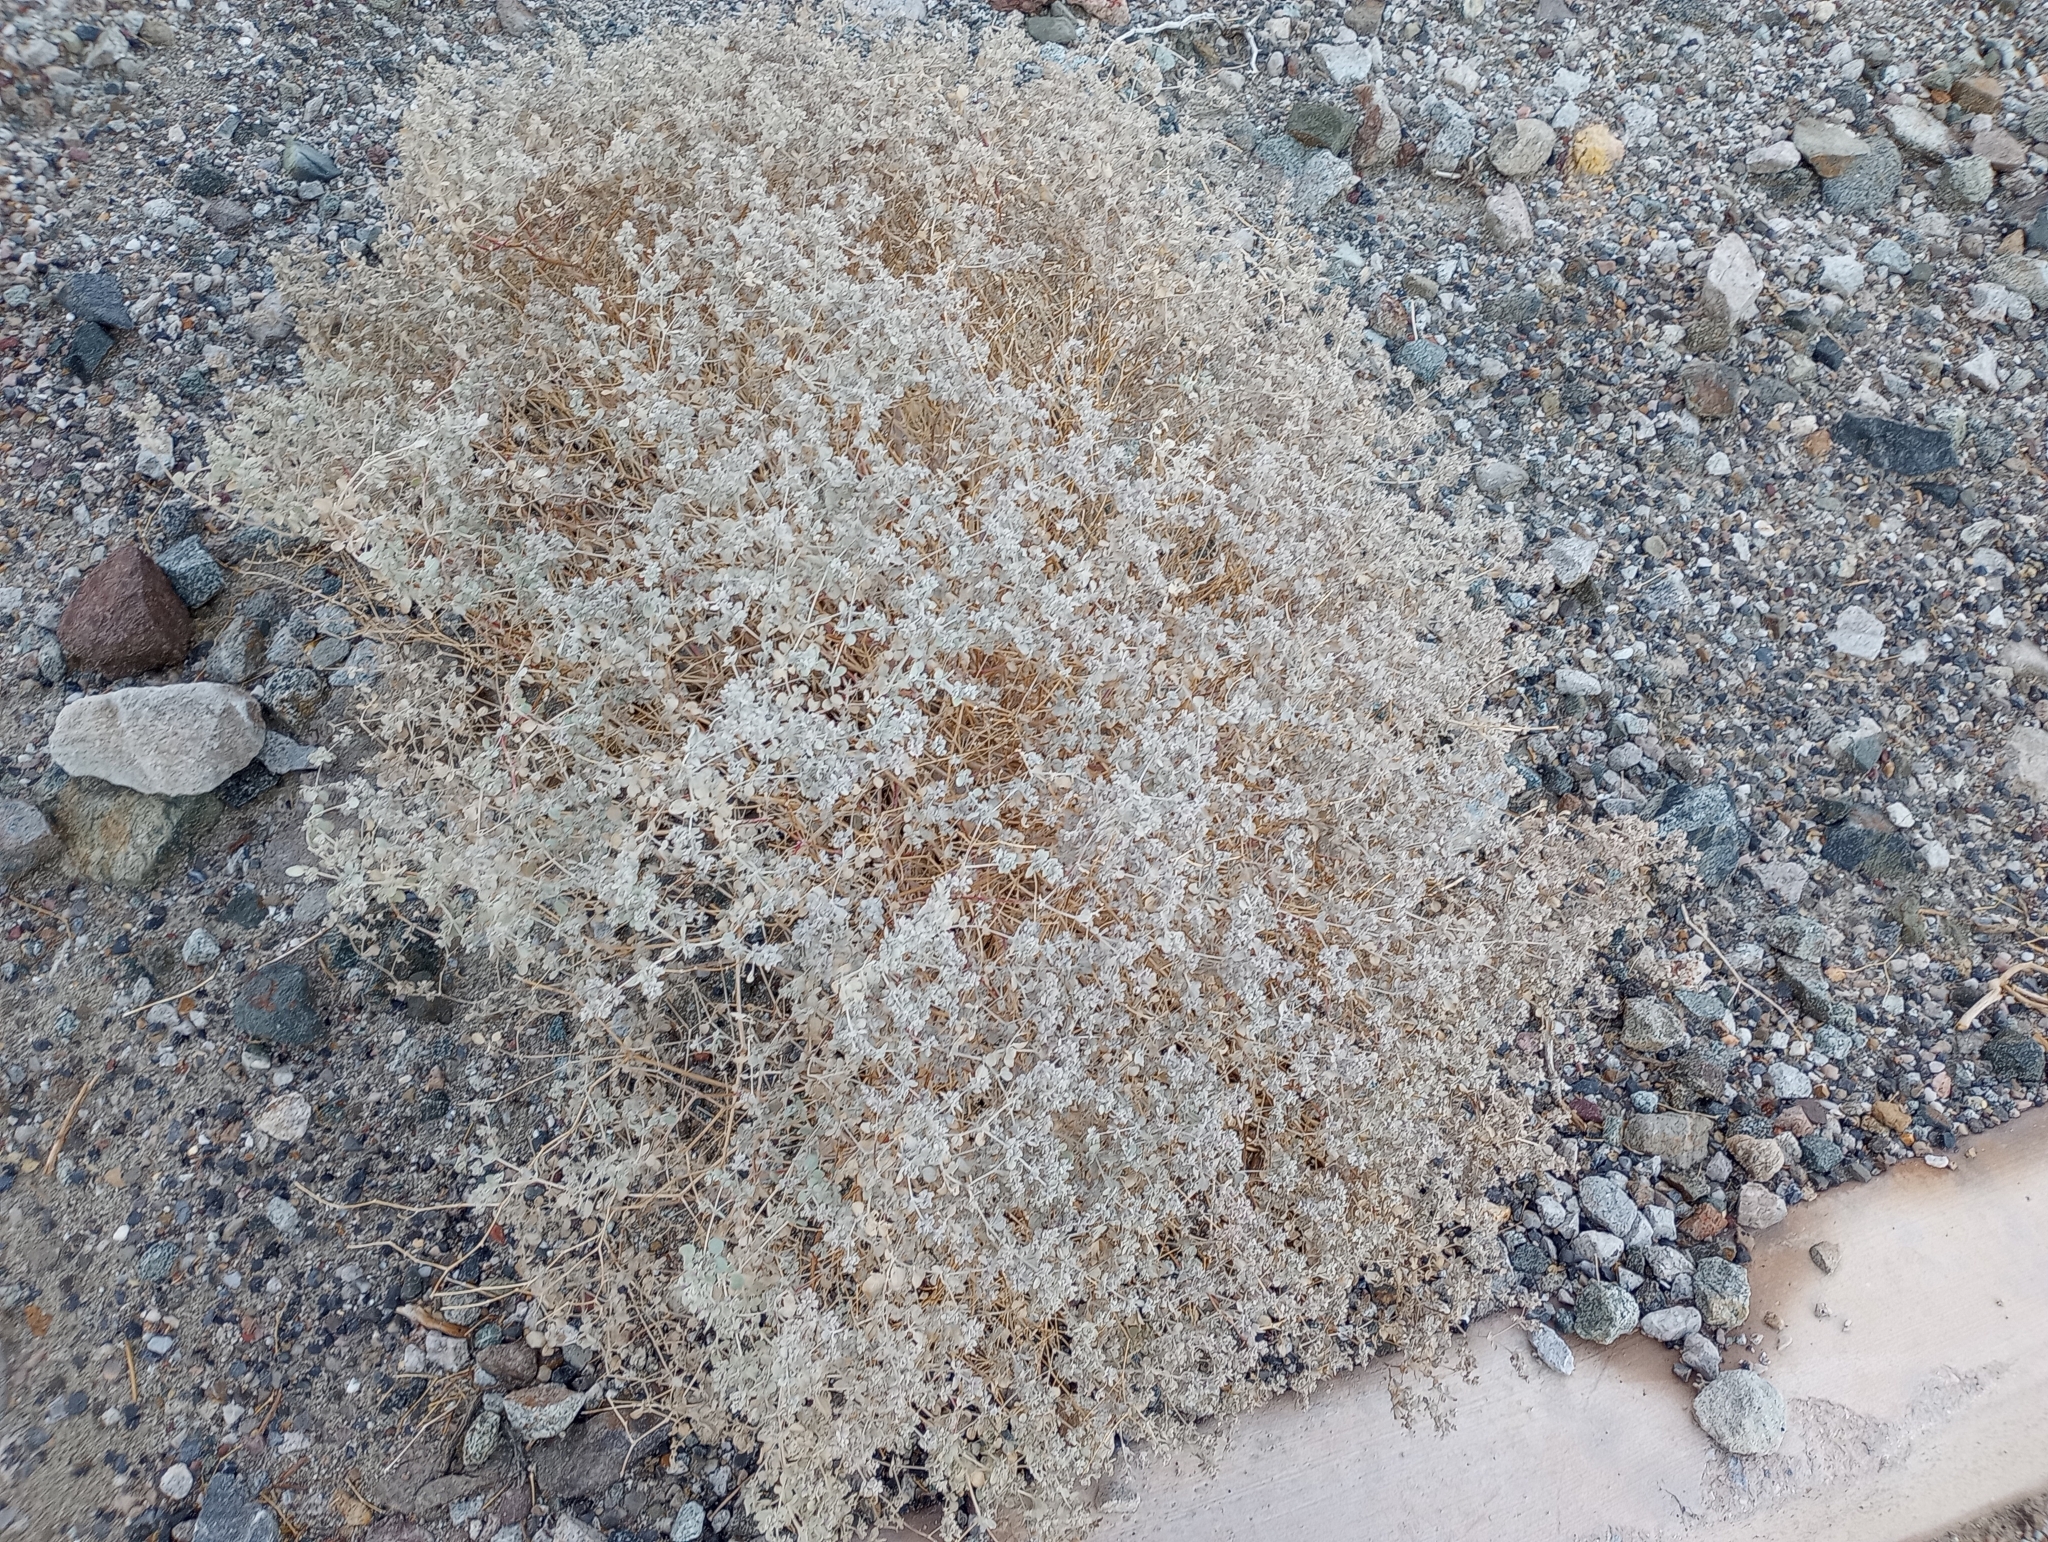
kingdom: Plantae
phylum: Tracheophyta
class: Magnoliopsida
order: Caryophyllales
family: Amaranthaceae
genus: Tidestromia
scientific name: Tidestromia suffruticosa
